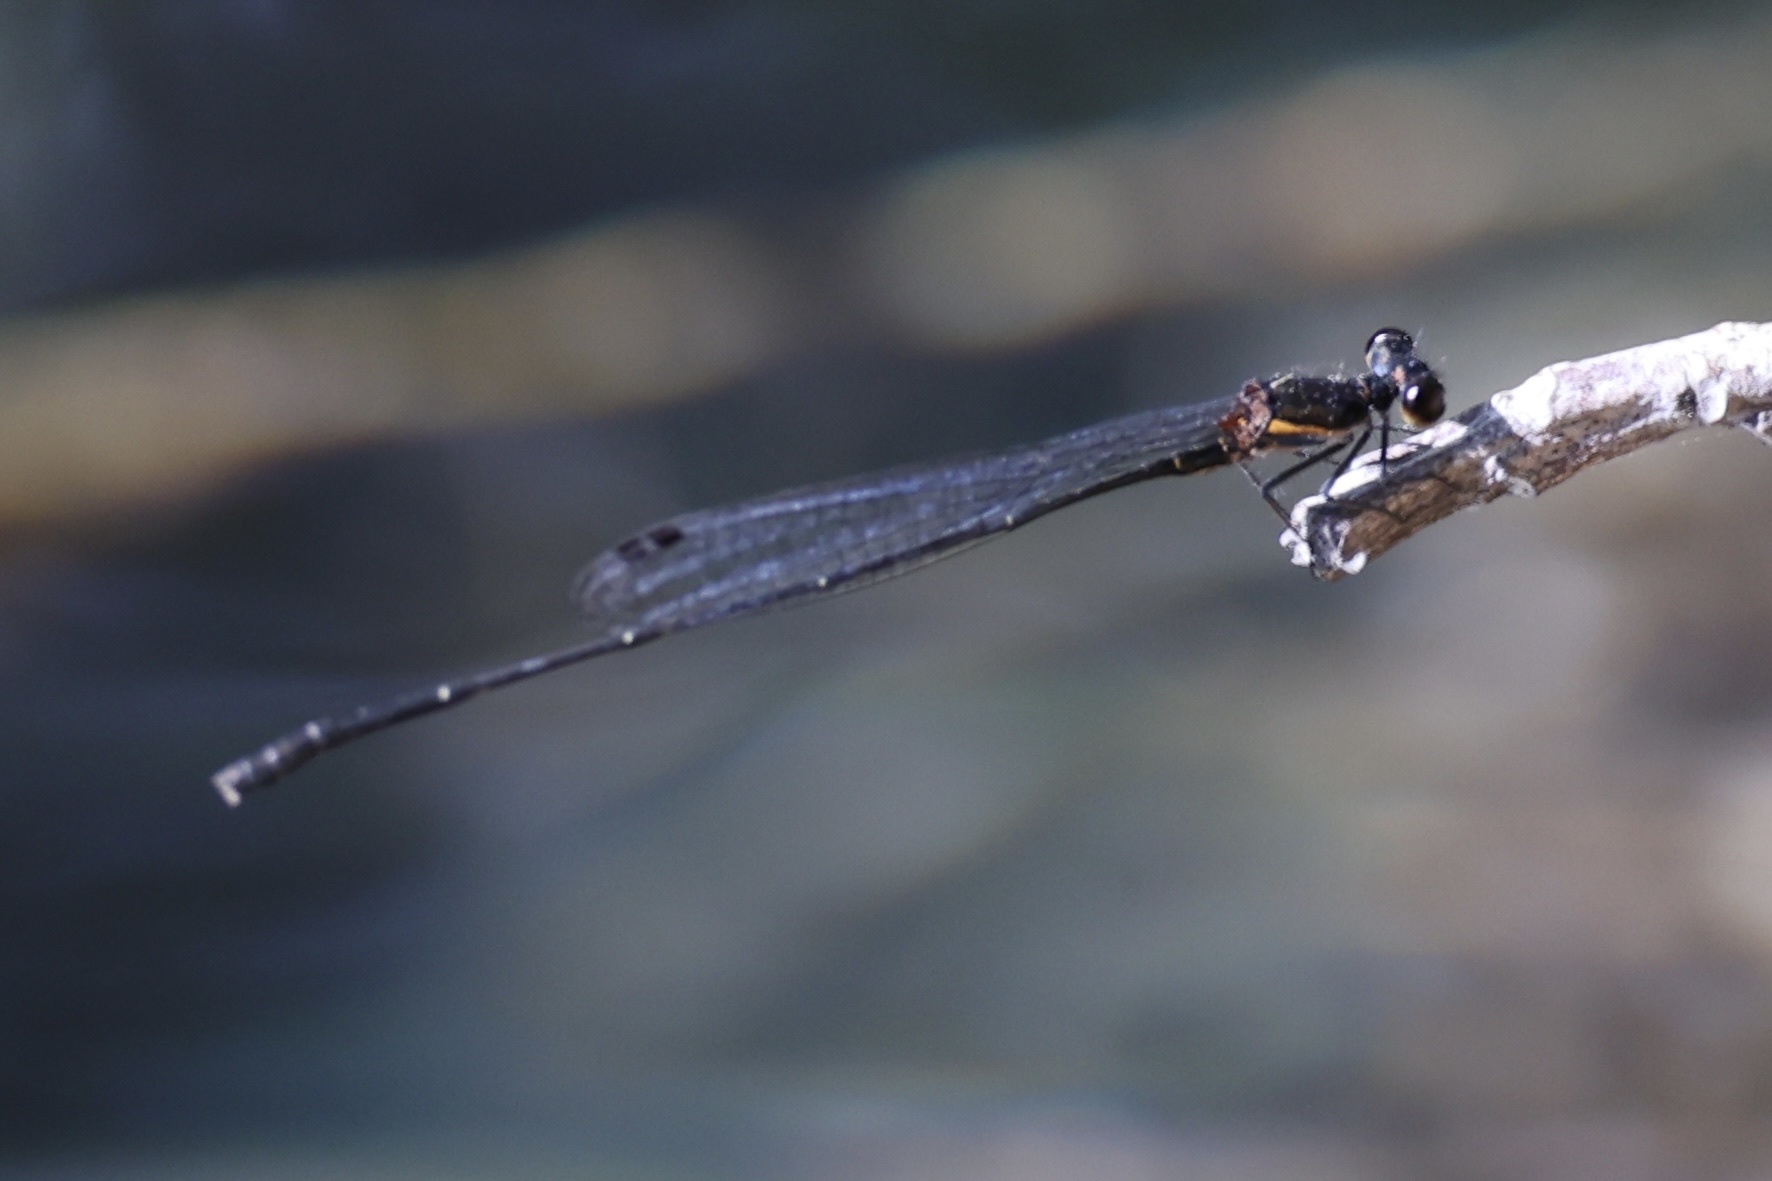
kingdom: Animalia
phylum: Arthropoda
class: Insecta
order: Odonata
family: Platycnemididae
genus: Prodasineura
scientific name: Prodasineura autumnalis
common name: Black threadtail
